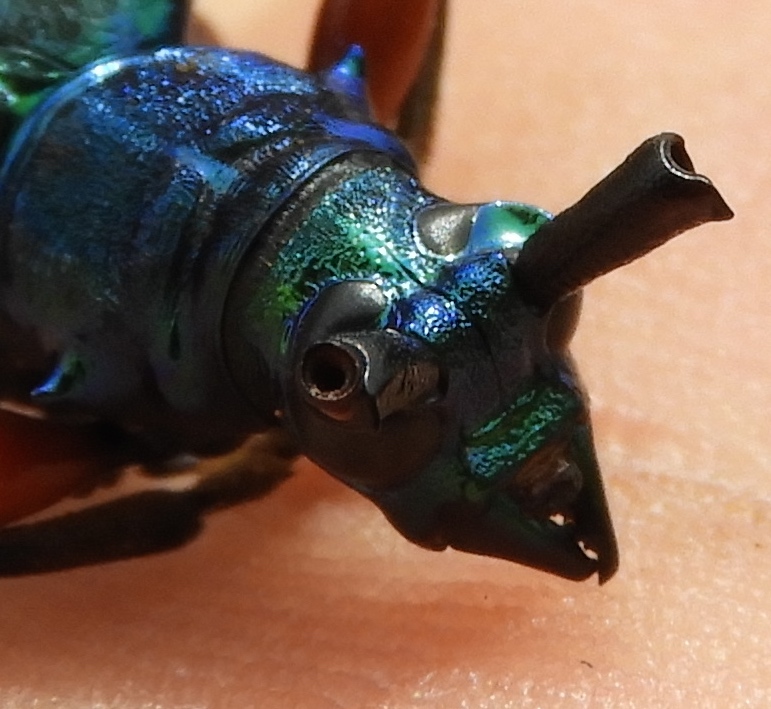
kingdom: Animalia
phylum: Arthropoda
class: Insecta
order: Coleoptera
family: Cerambycidae
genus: Plinthocoelium
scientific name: Plinthocoelium chilensis
